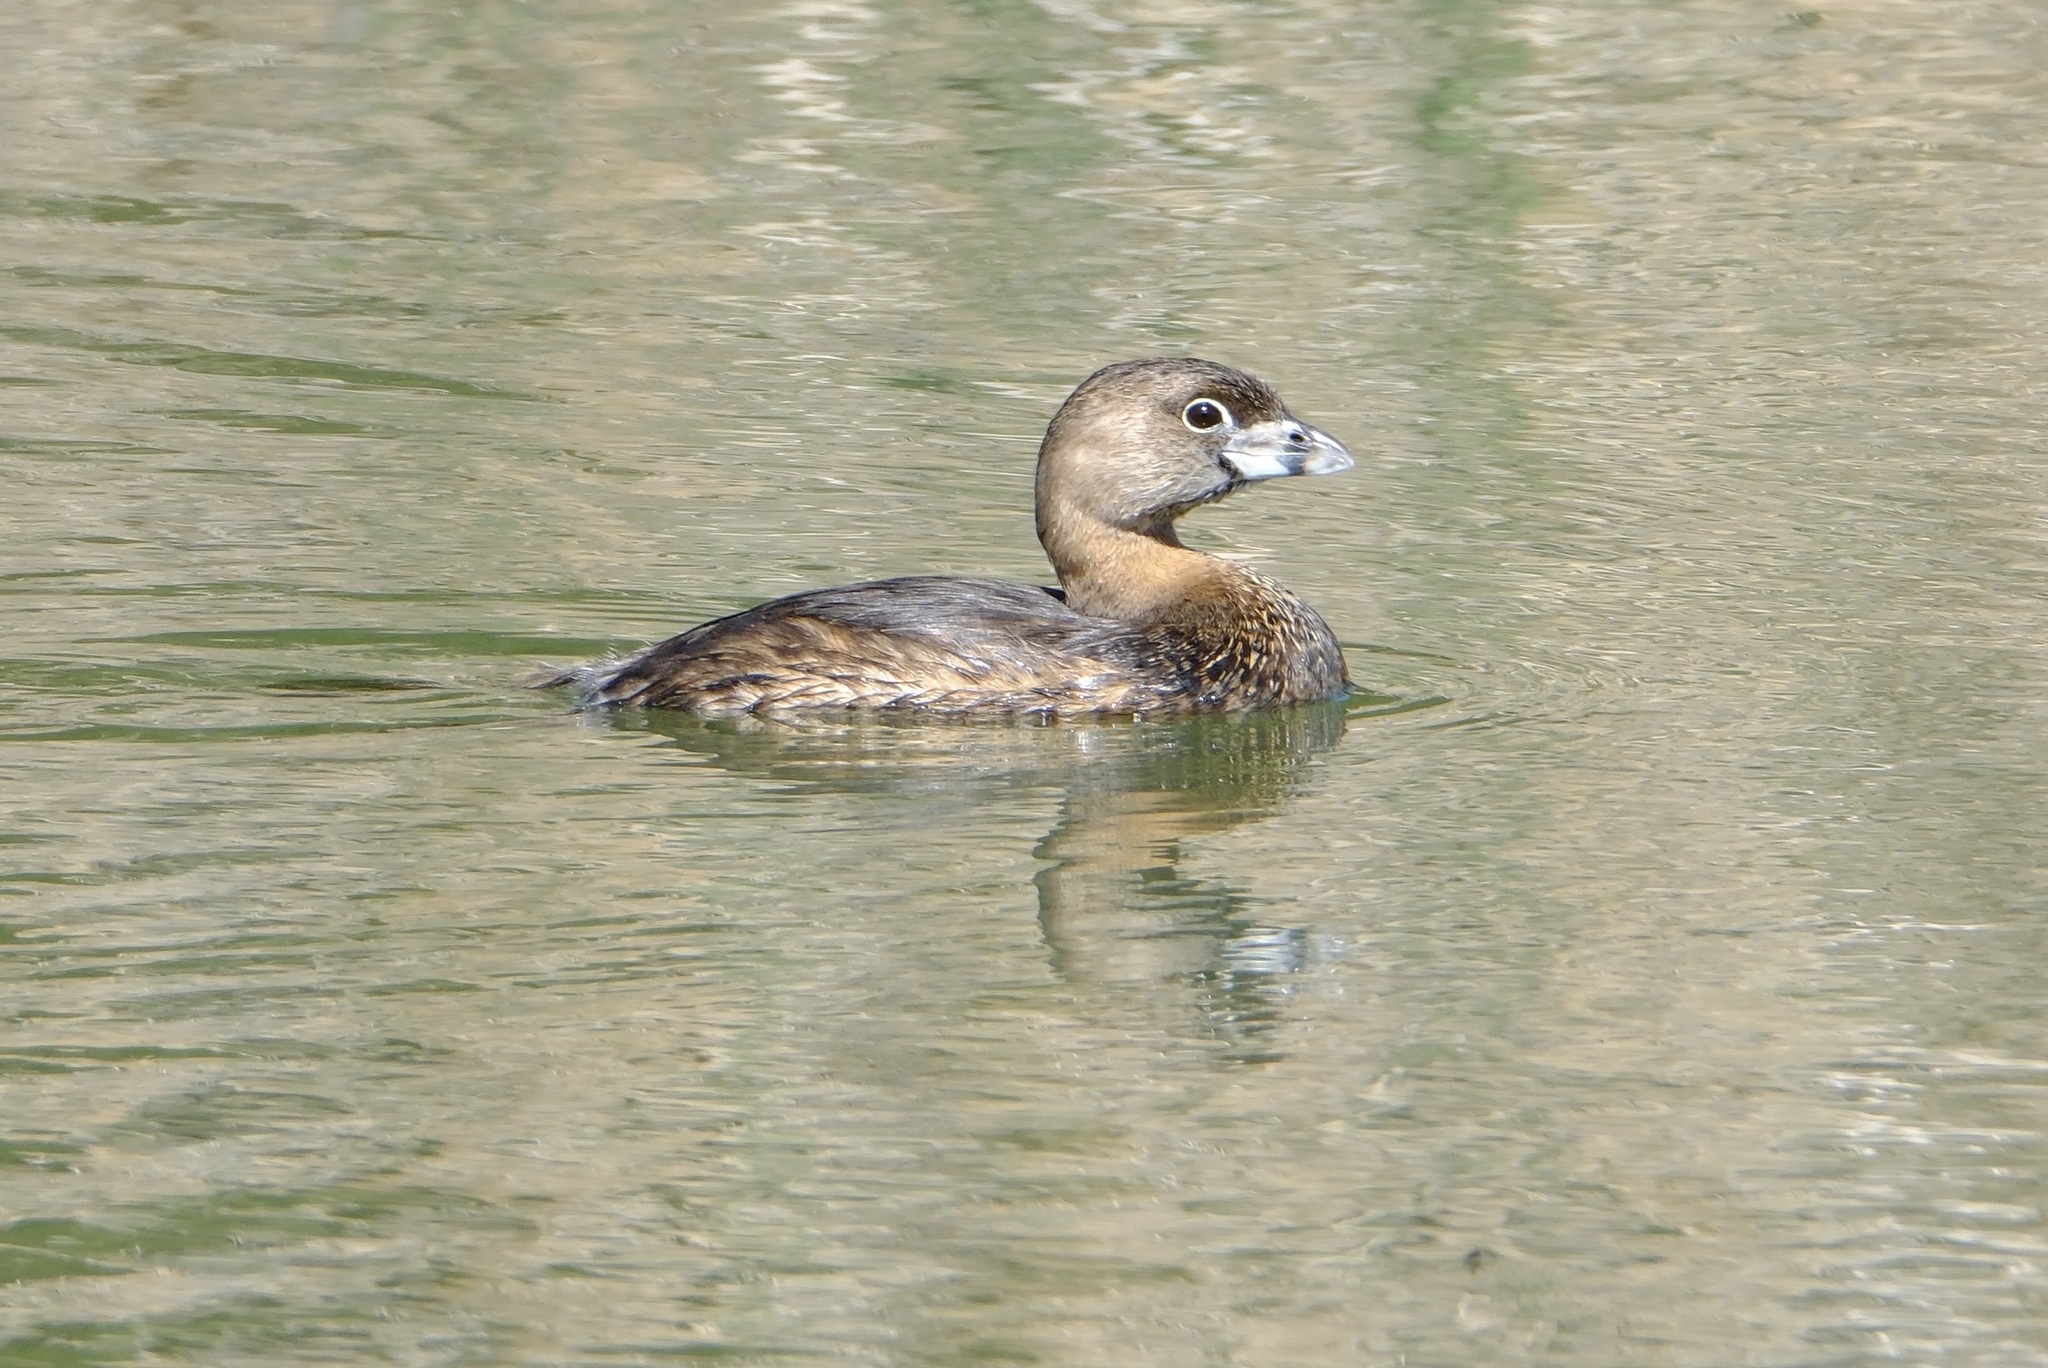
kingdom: Animalia
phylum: Chordata
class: Aves
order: Podicipediformes
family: Podicipedidae
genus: Podilymbus
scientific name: Podilymbus podiceps
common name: Pied-billed grebe
